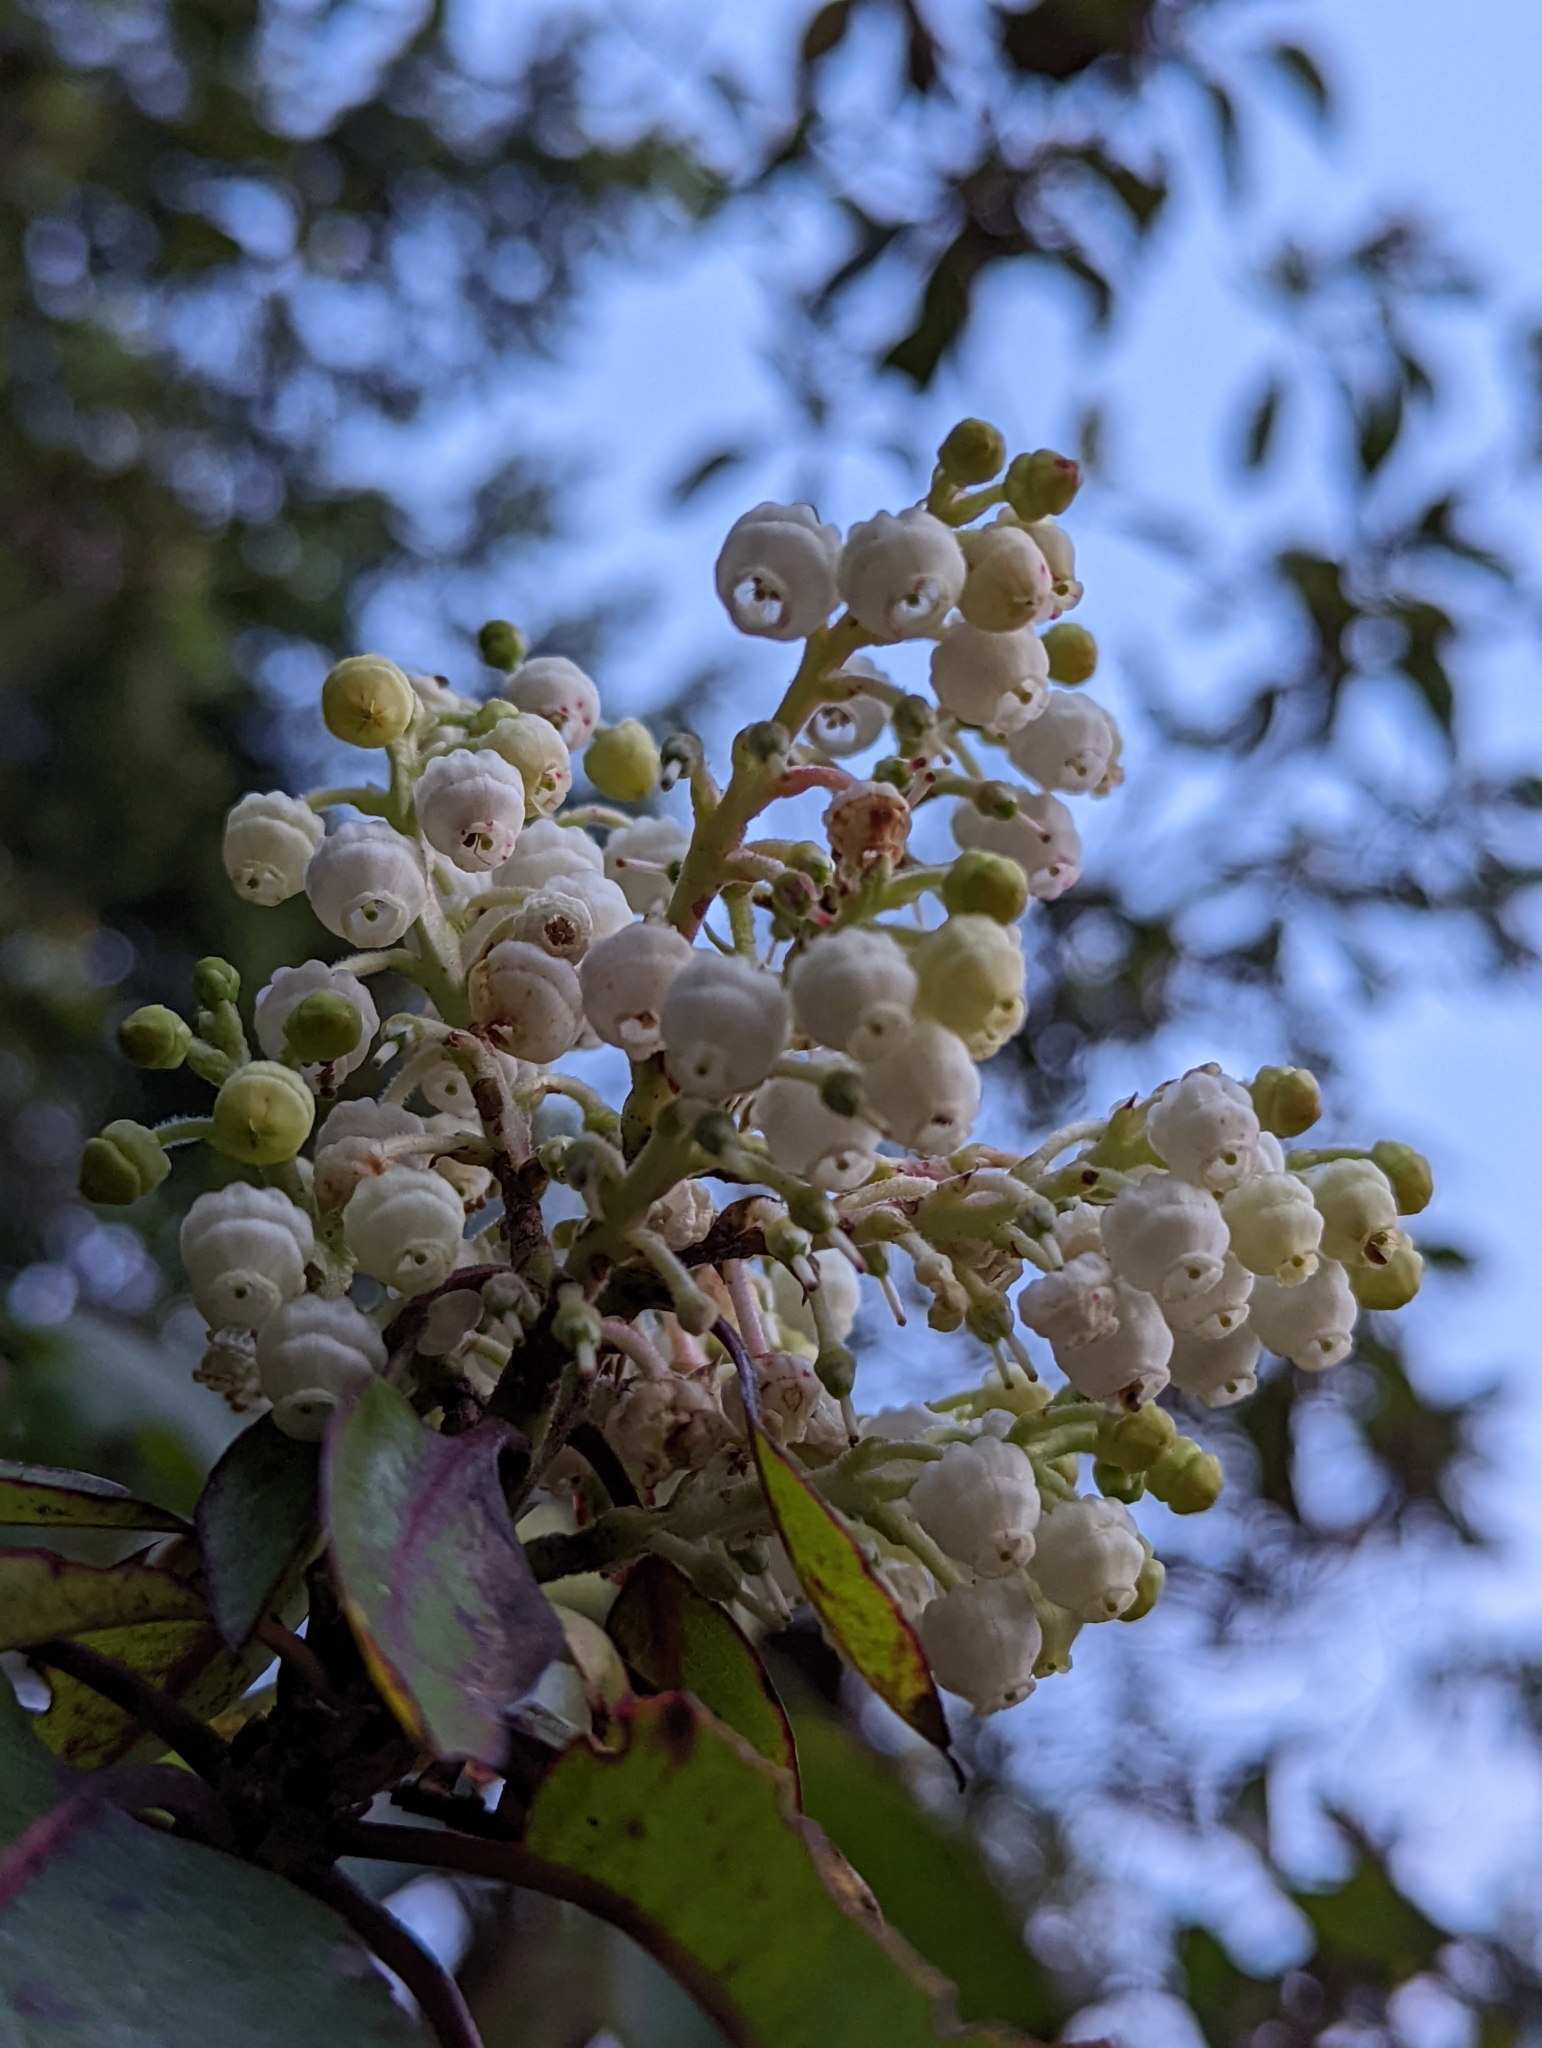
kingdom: Plantae
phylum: Tracheophyta
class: Magnoliopsida
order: Ericales
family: Ericaceae
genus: Arbutus
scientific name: Arbutus menziesii
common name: Pacific madrone
